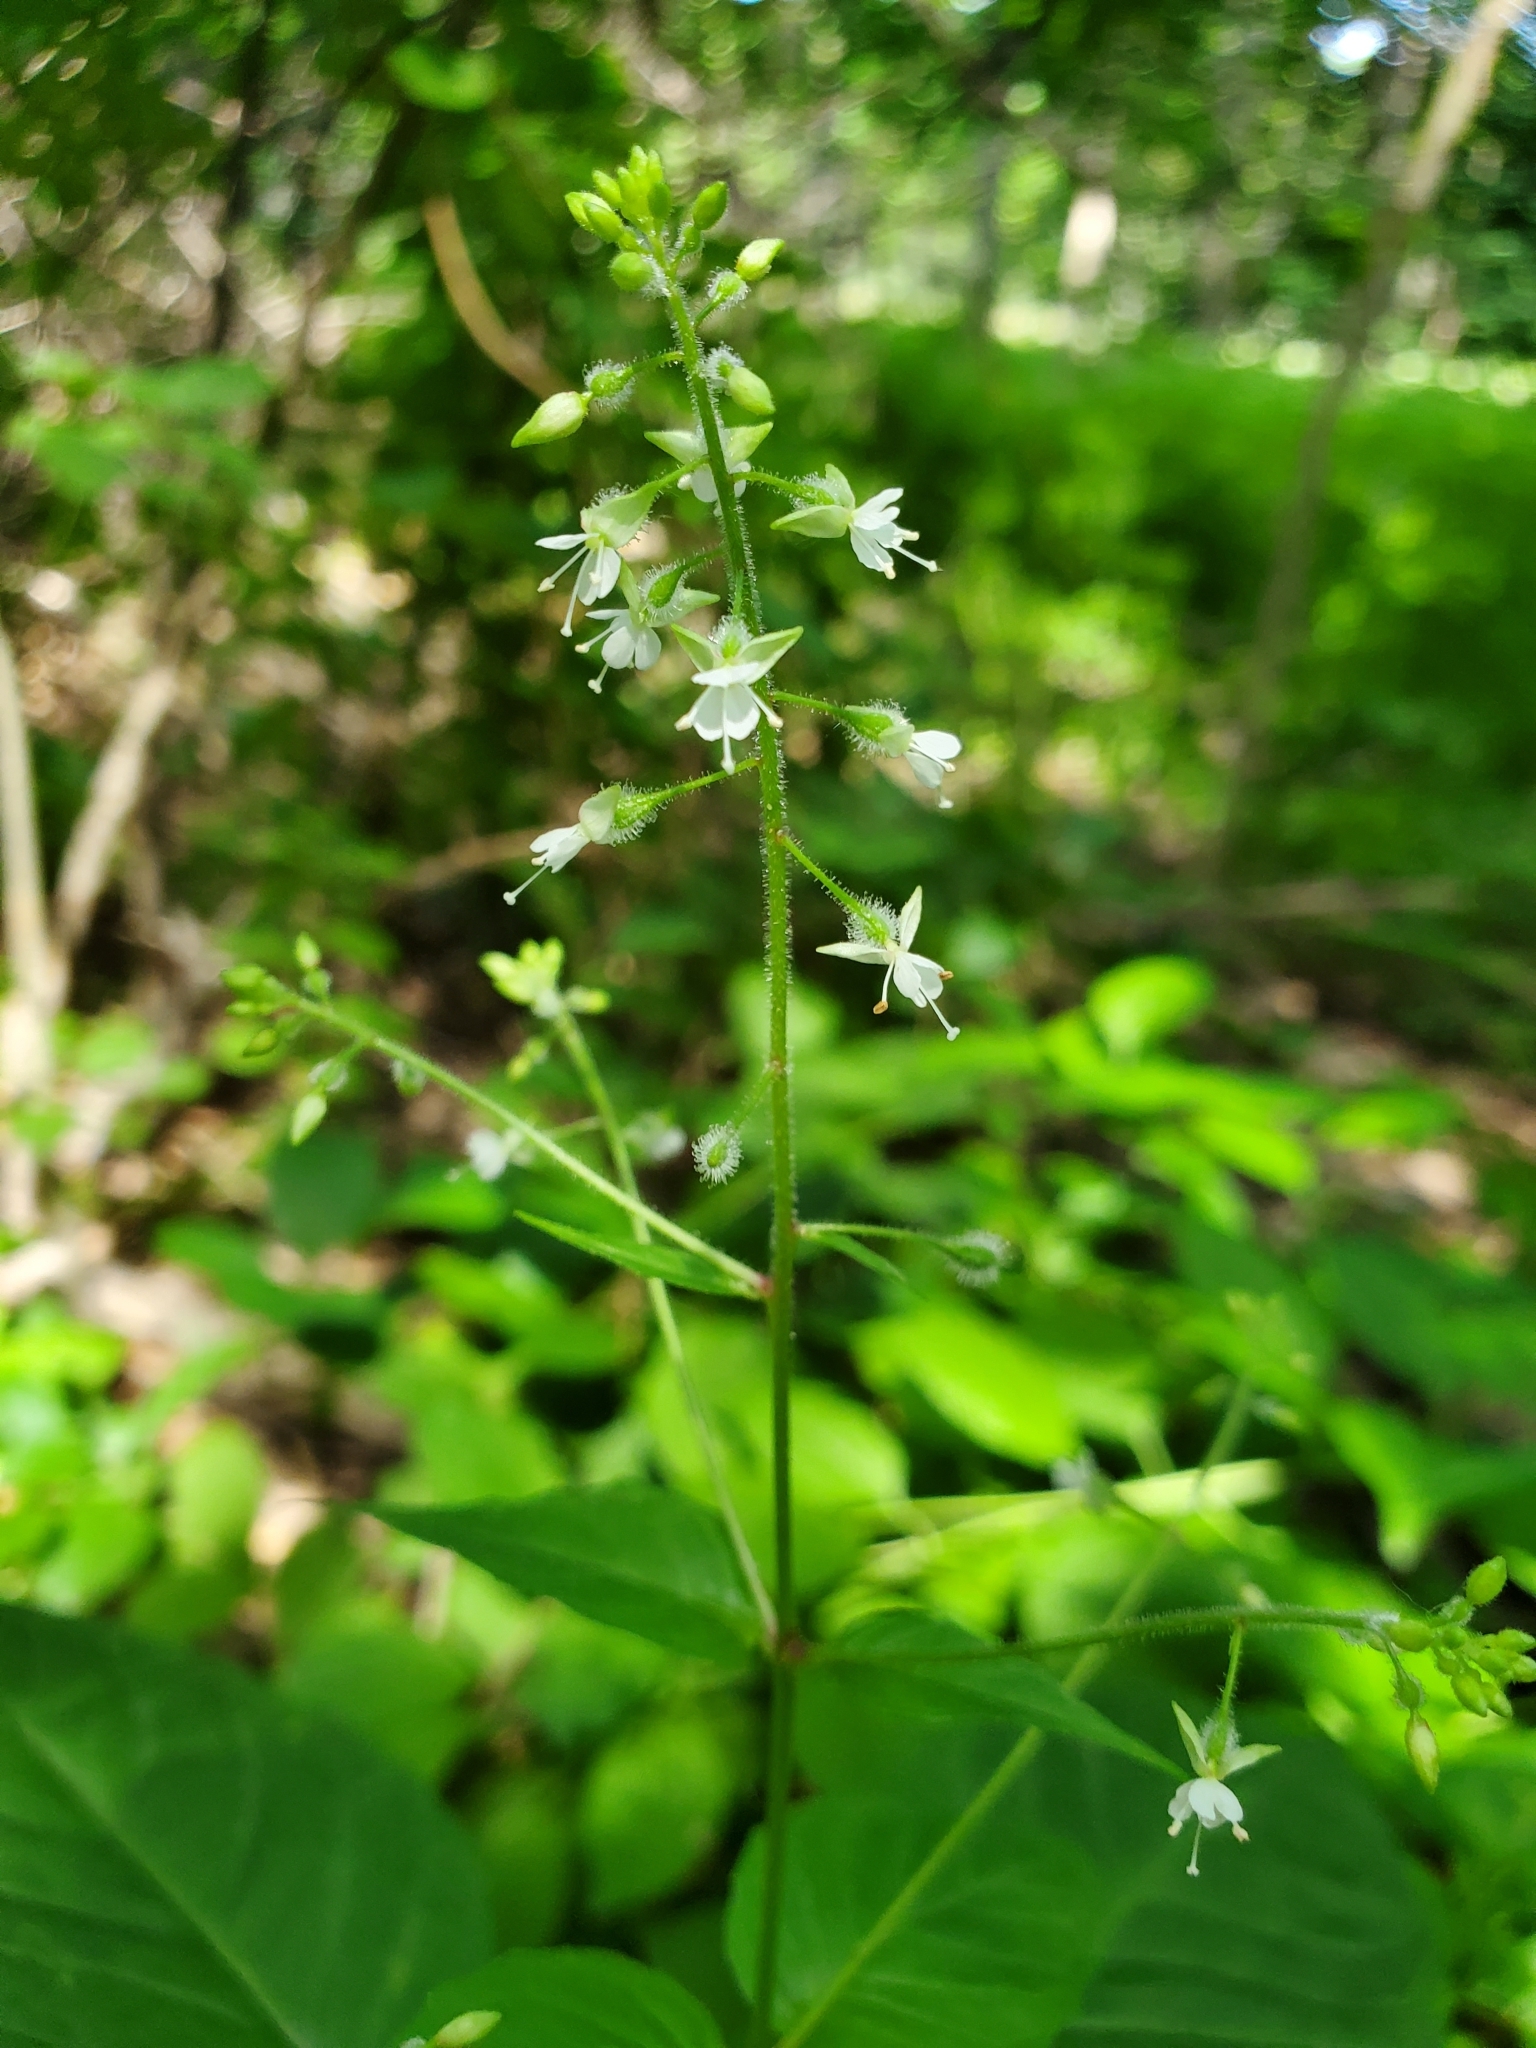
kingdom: Plantae
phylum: Tracheophyta
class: Magnoliopsida
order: Myrtales
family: Onagraceae
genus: Circaea
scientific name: Circaea canadensis
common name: Broad-leaved enchanter's nightshade
